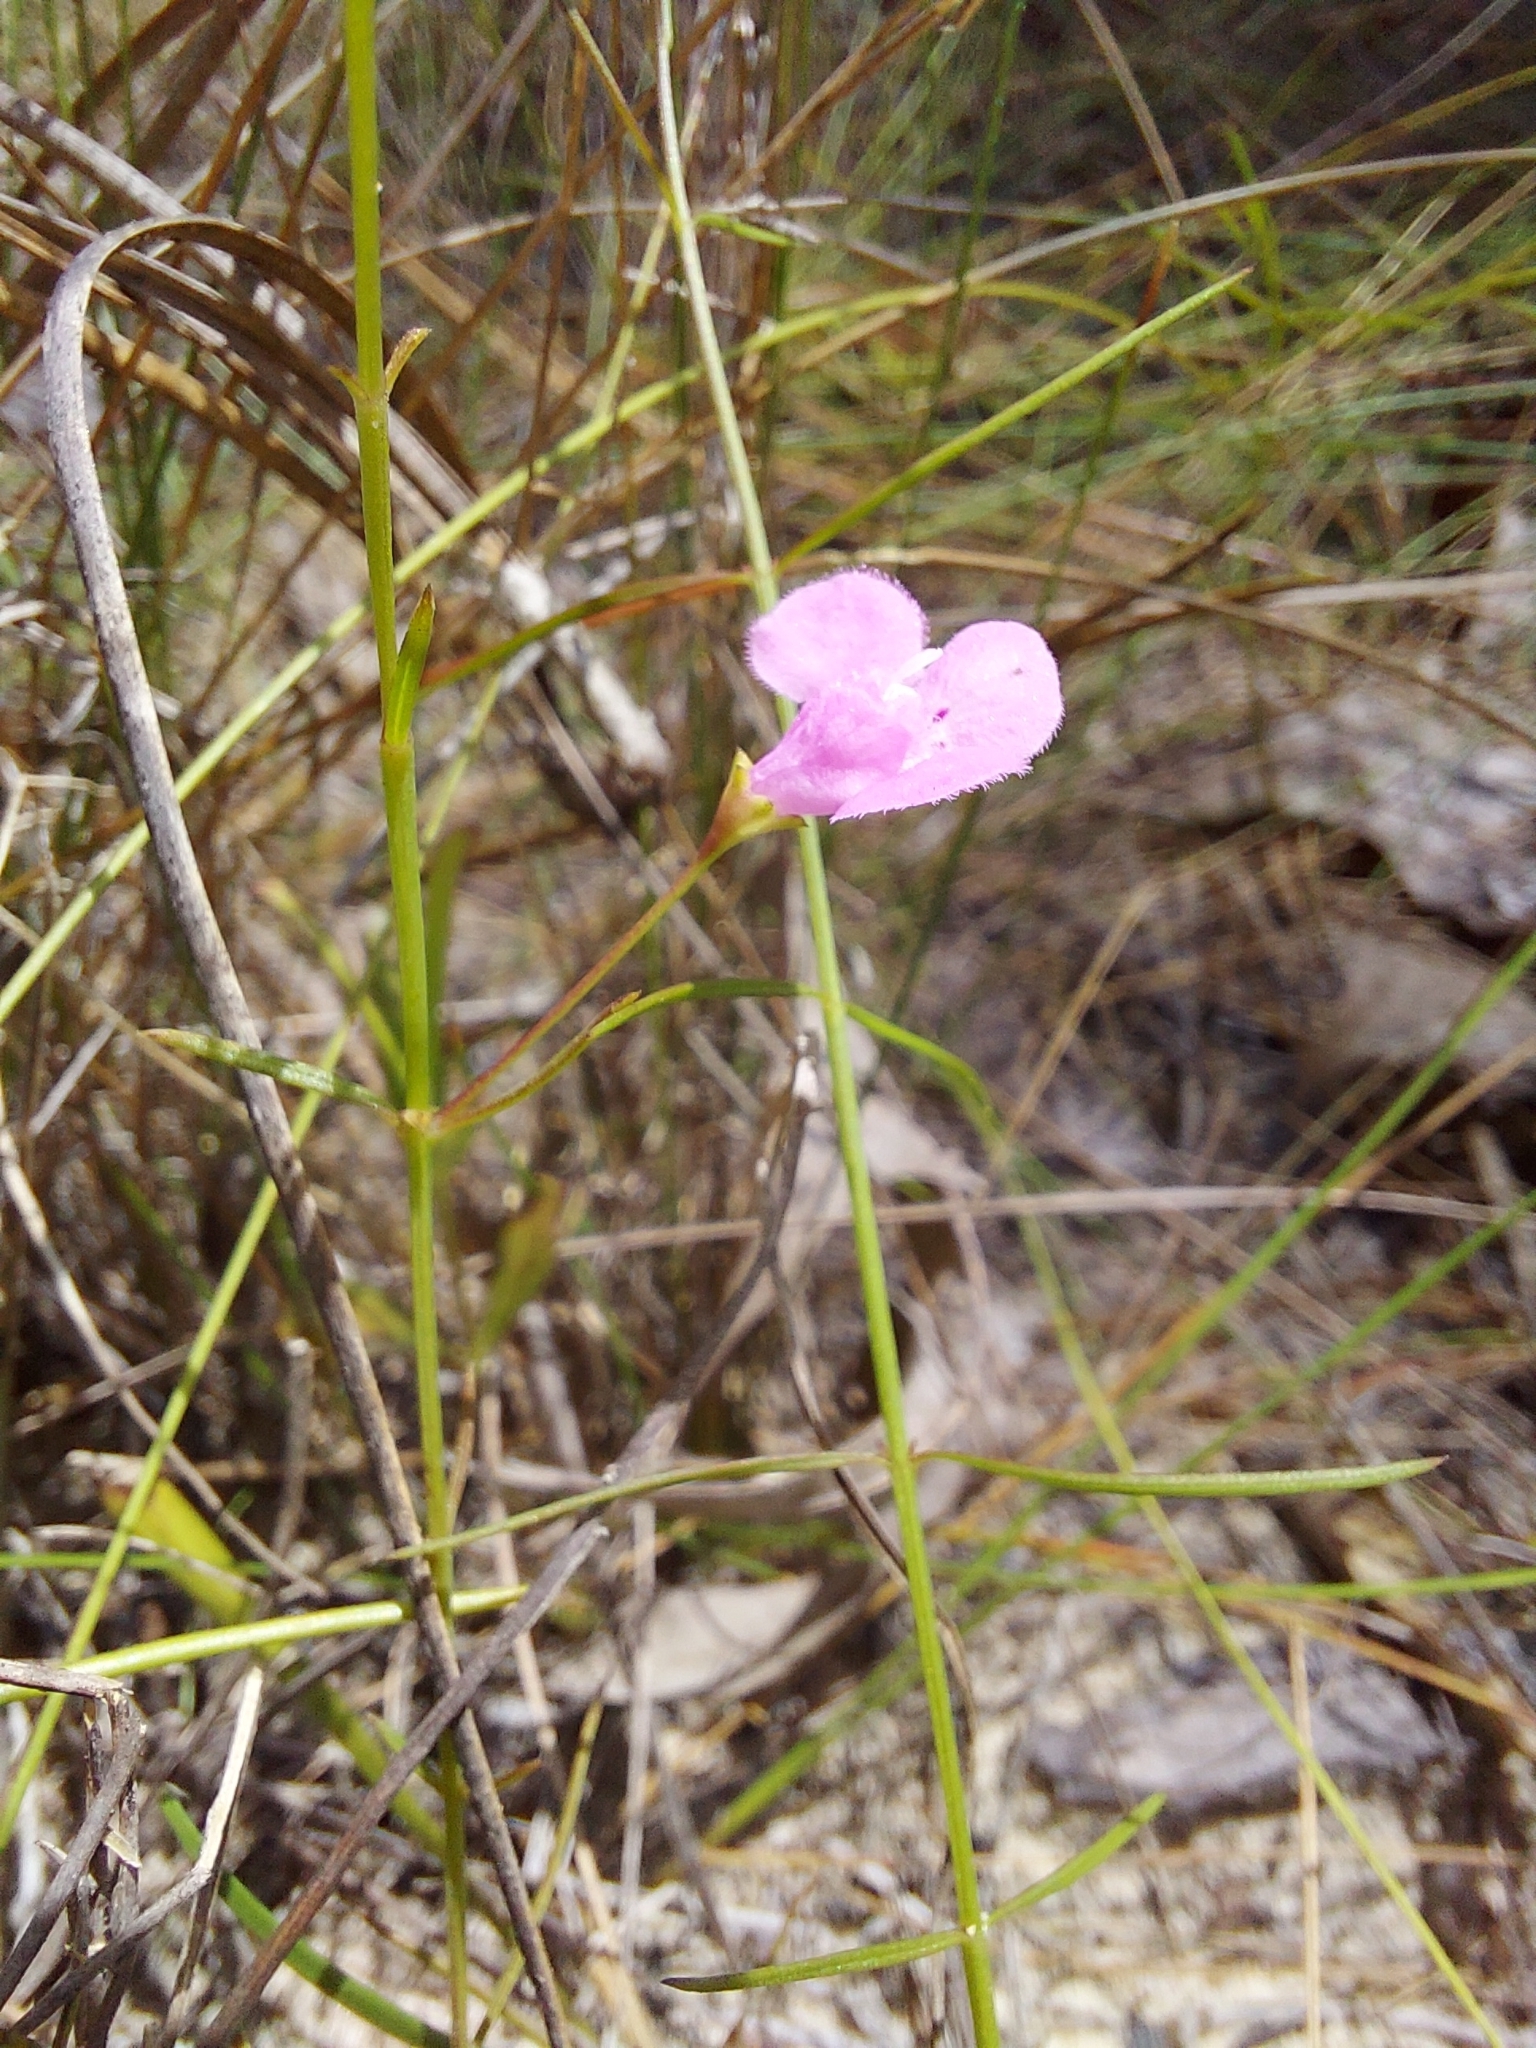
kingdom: Plantae
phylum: Tracheophyta
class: Magnoliopsida
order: Lamiales
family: Orobanchaceae
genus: Agalinis
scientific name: Agalinis divaricata
